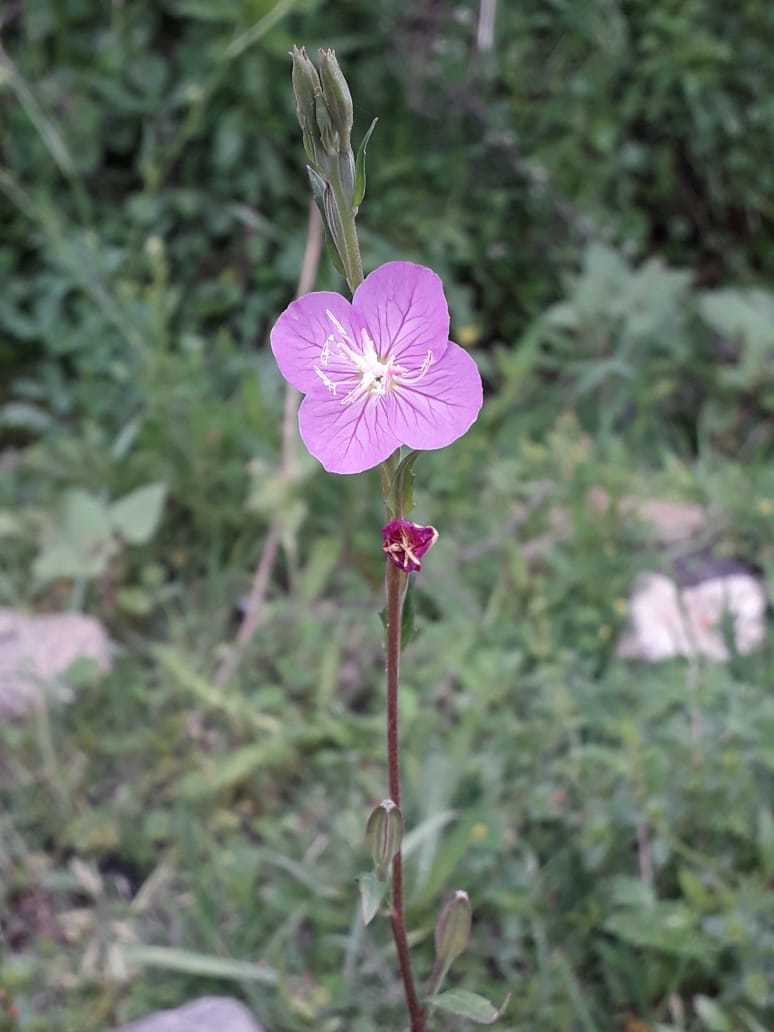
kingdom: Plantae
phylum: Tracheophyta
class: Magnoliopsida
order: Myrtales
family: Onagraceae
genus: Oenothera
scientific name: Oenothera rosea
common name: Rosy evening-primrose
